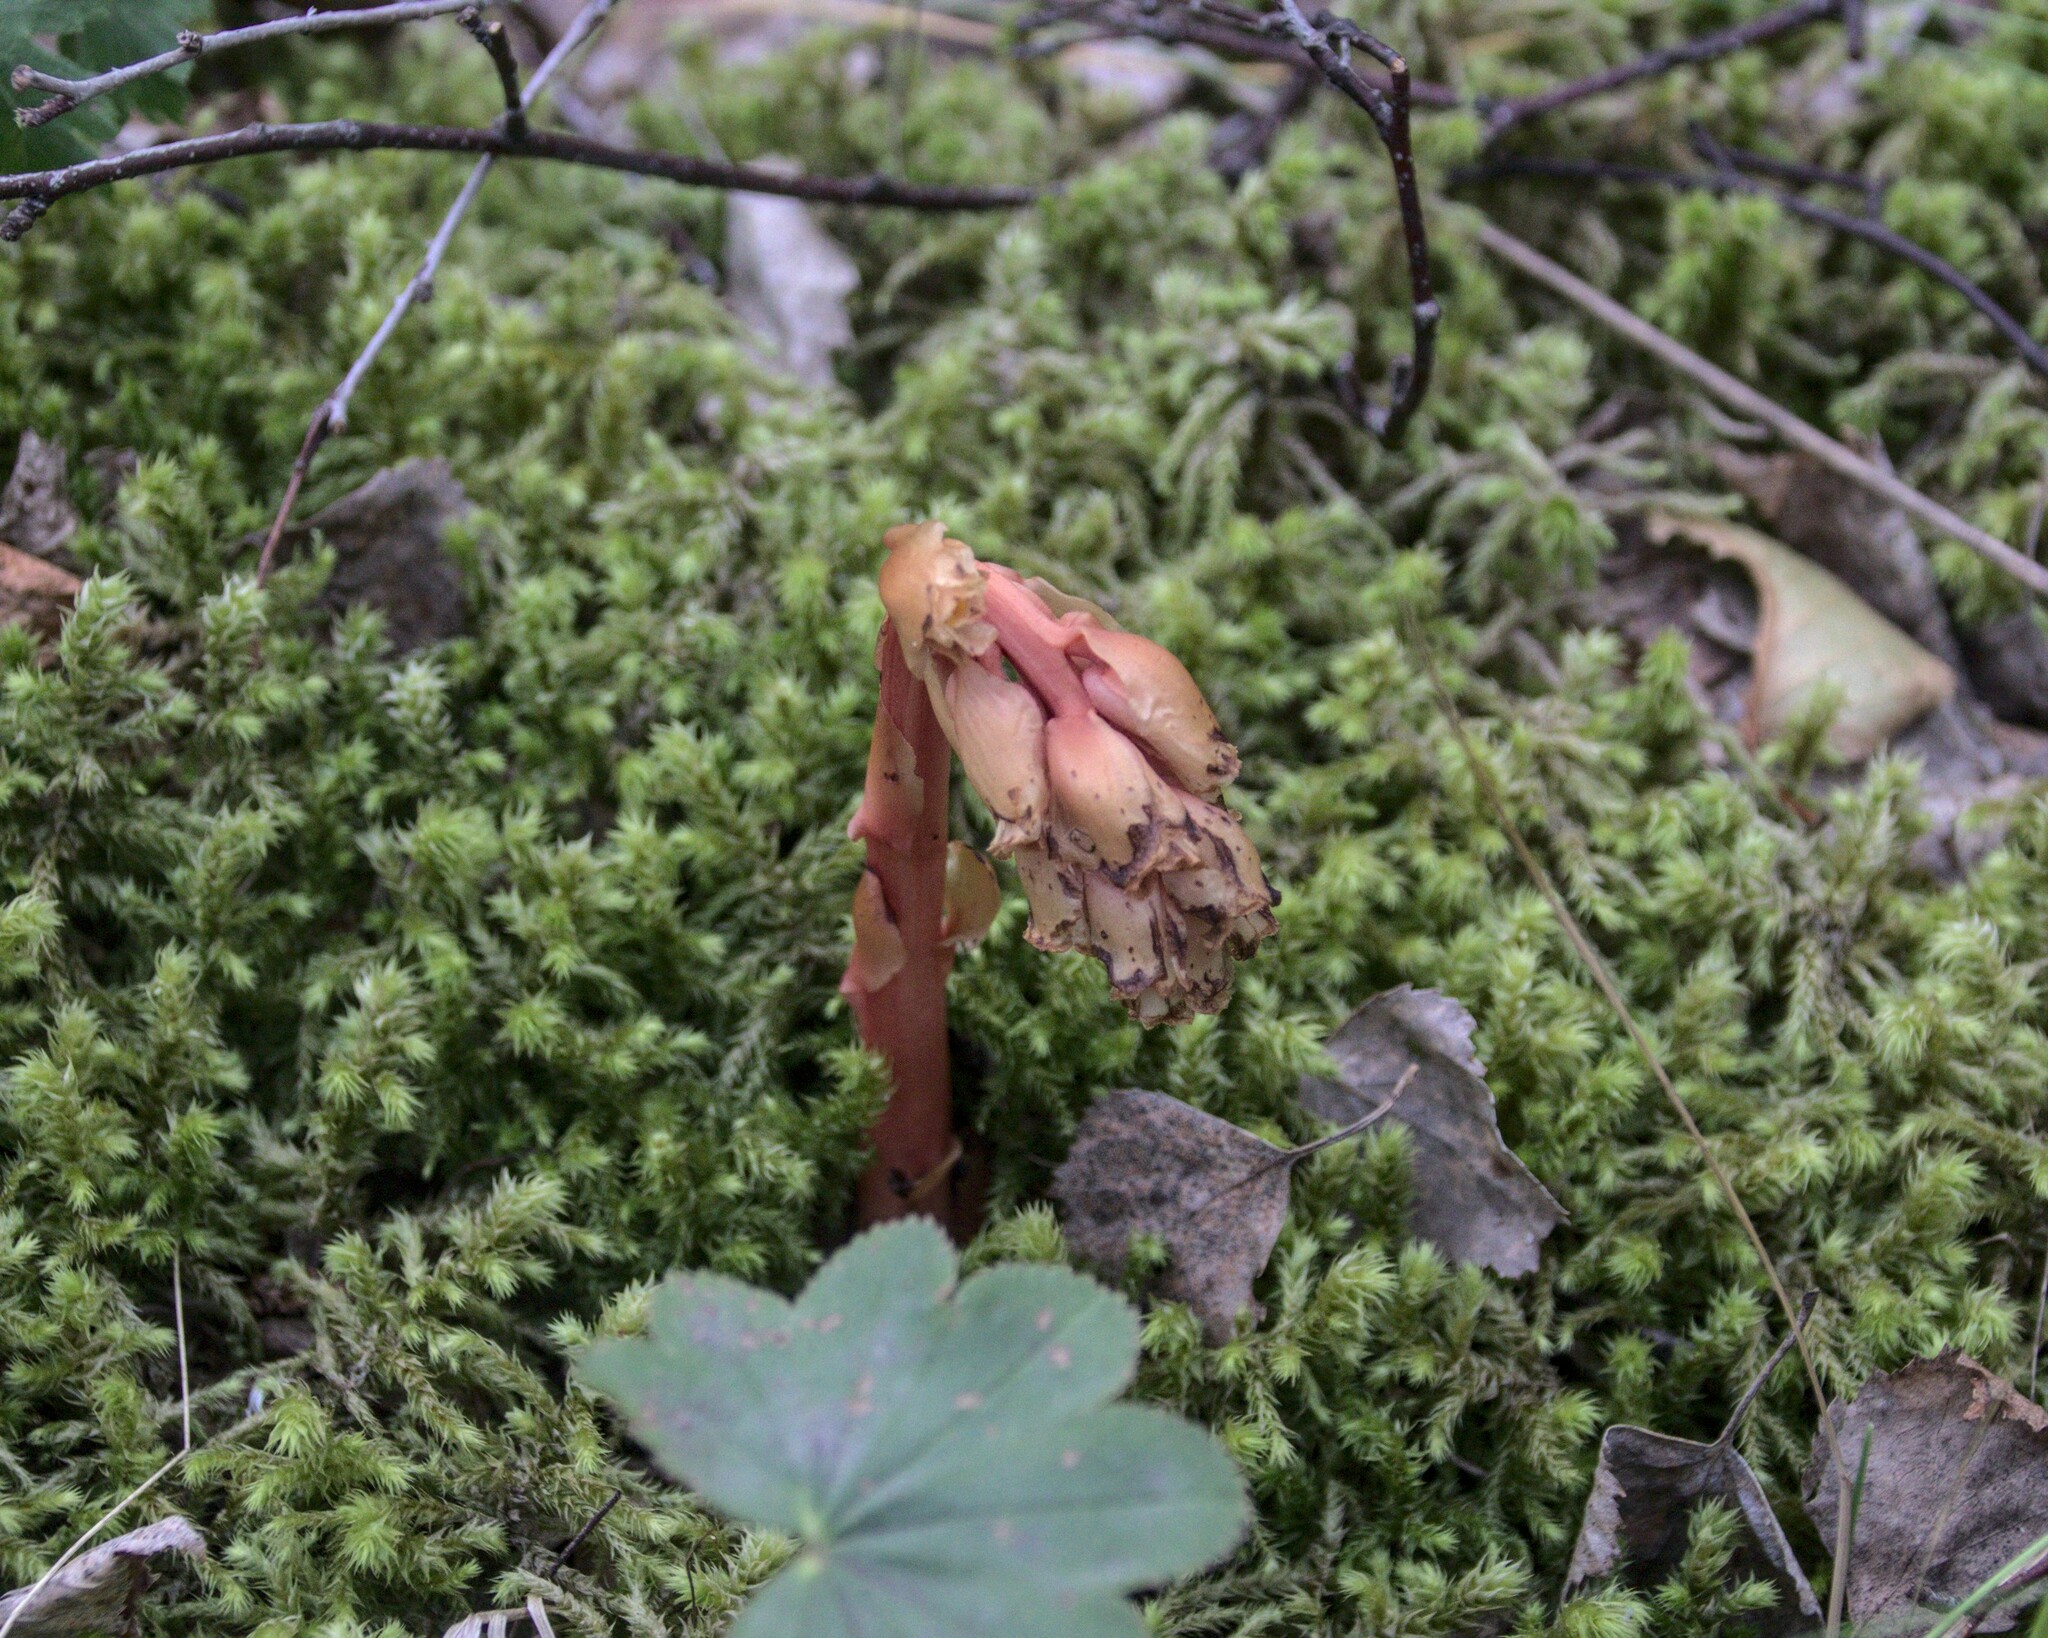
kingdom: Plantae
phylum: Tracheophyta
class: Magnoliopsida
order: Ericales
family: Ericaceae
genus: Hypopitys
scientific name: Hypopitys monotropa
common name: Yellow bird's-nest
